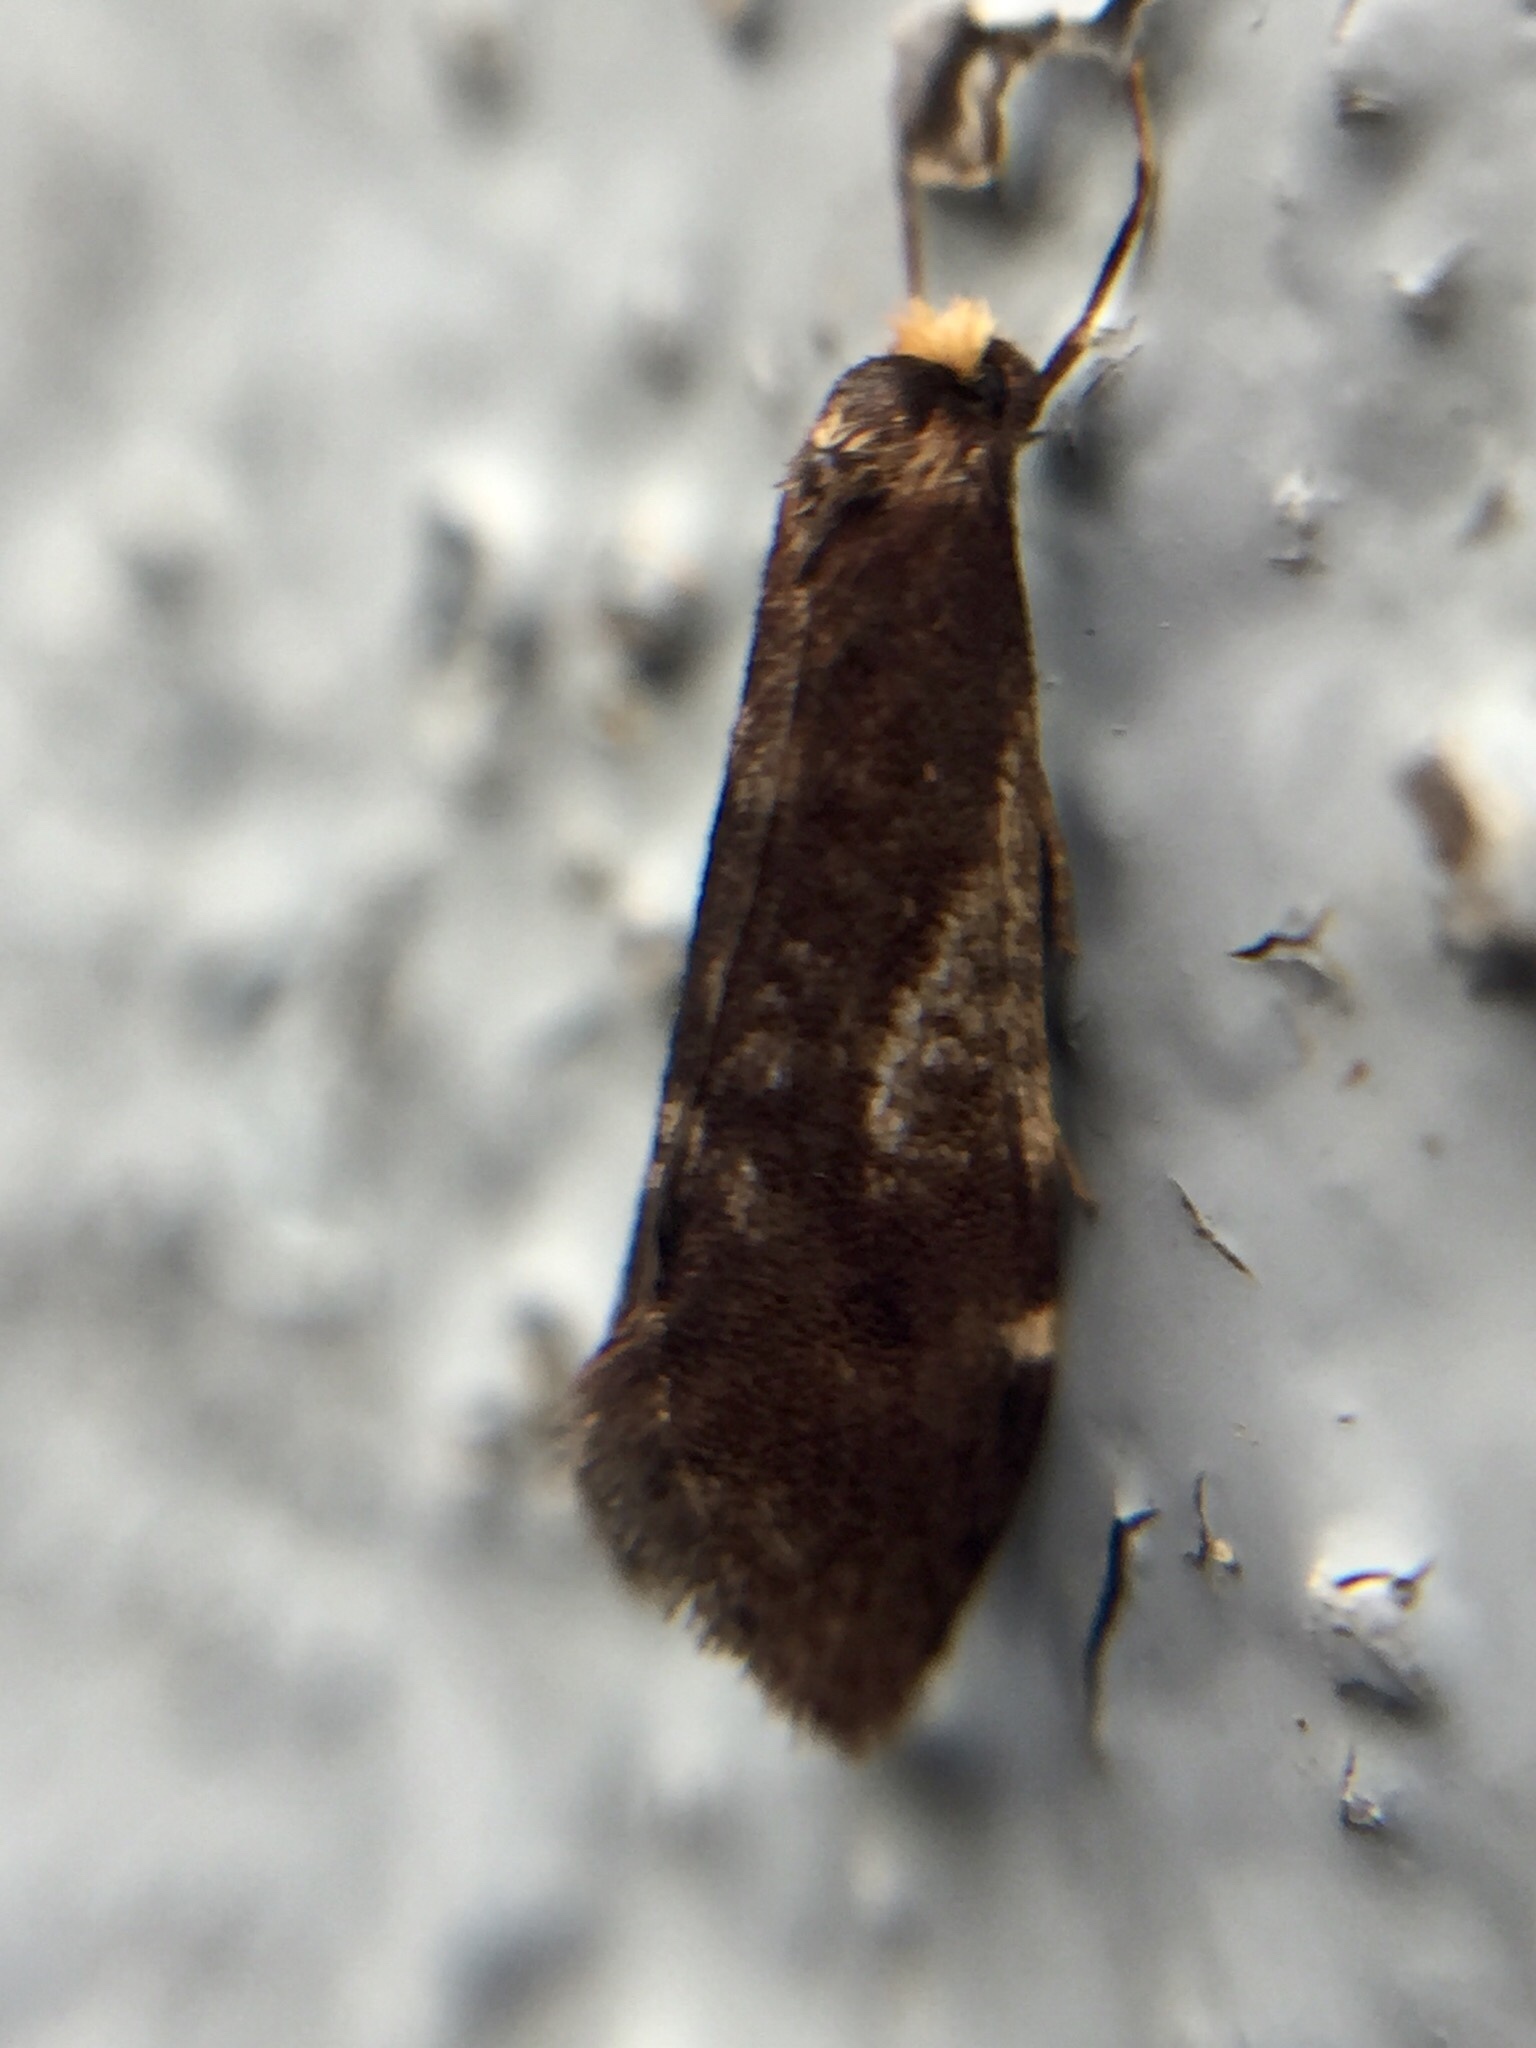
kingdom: Animalia
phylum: Arthropoda
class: Insecta
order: Lepidoptera
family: Psychidae
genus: Lepidoscia
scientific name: Lepidoscia lainodes
